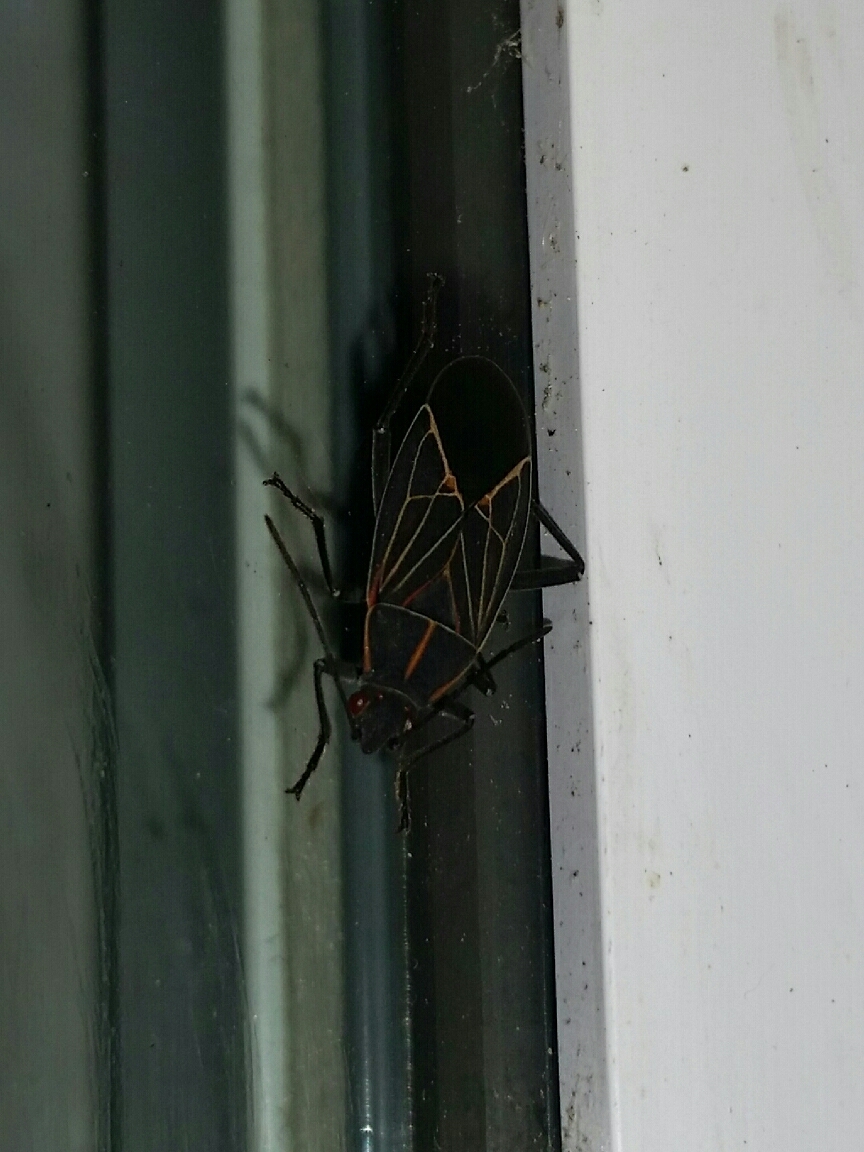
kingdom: Animalia
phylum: Arthropoda
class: Insecta
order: Hemiptera
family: Rhopalidae
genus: Boisea
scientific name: Boisea rubrolineata
